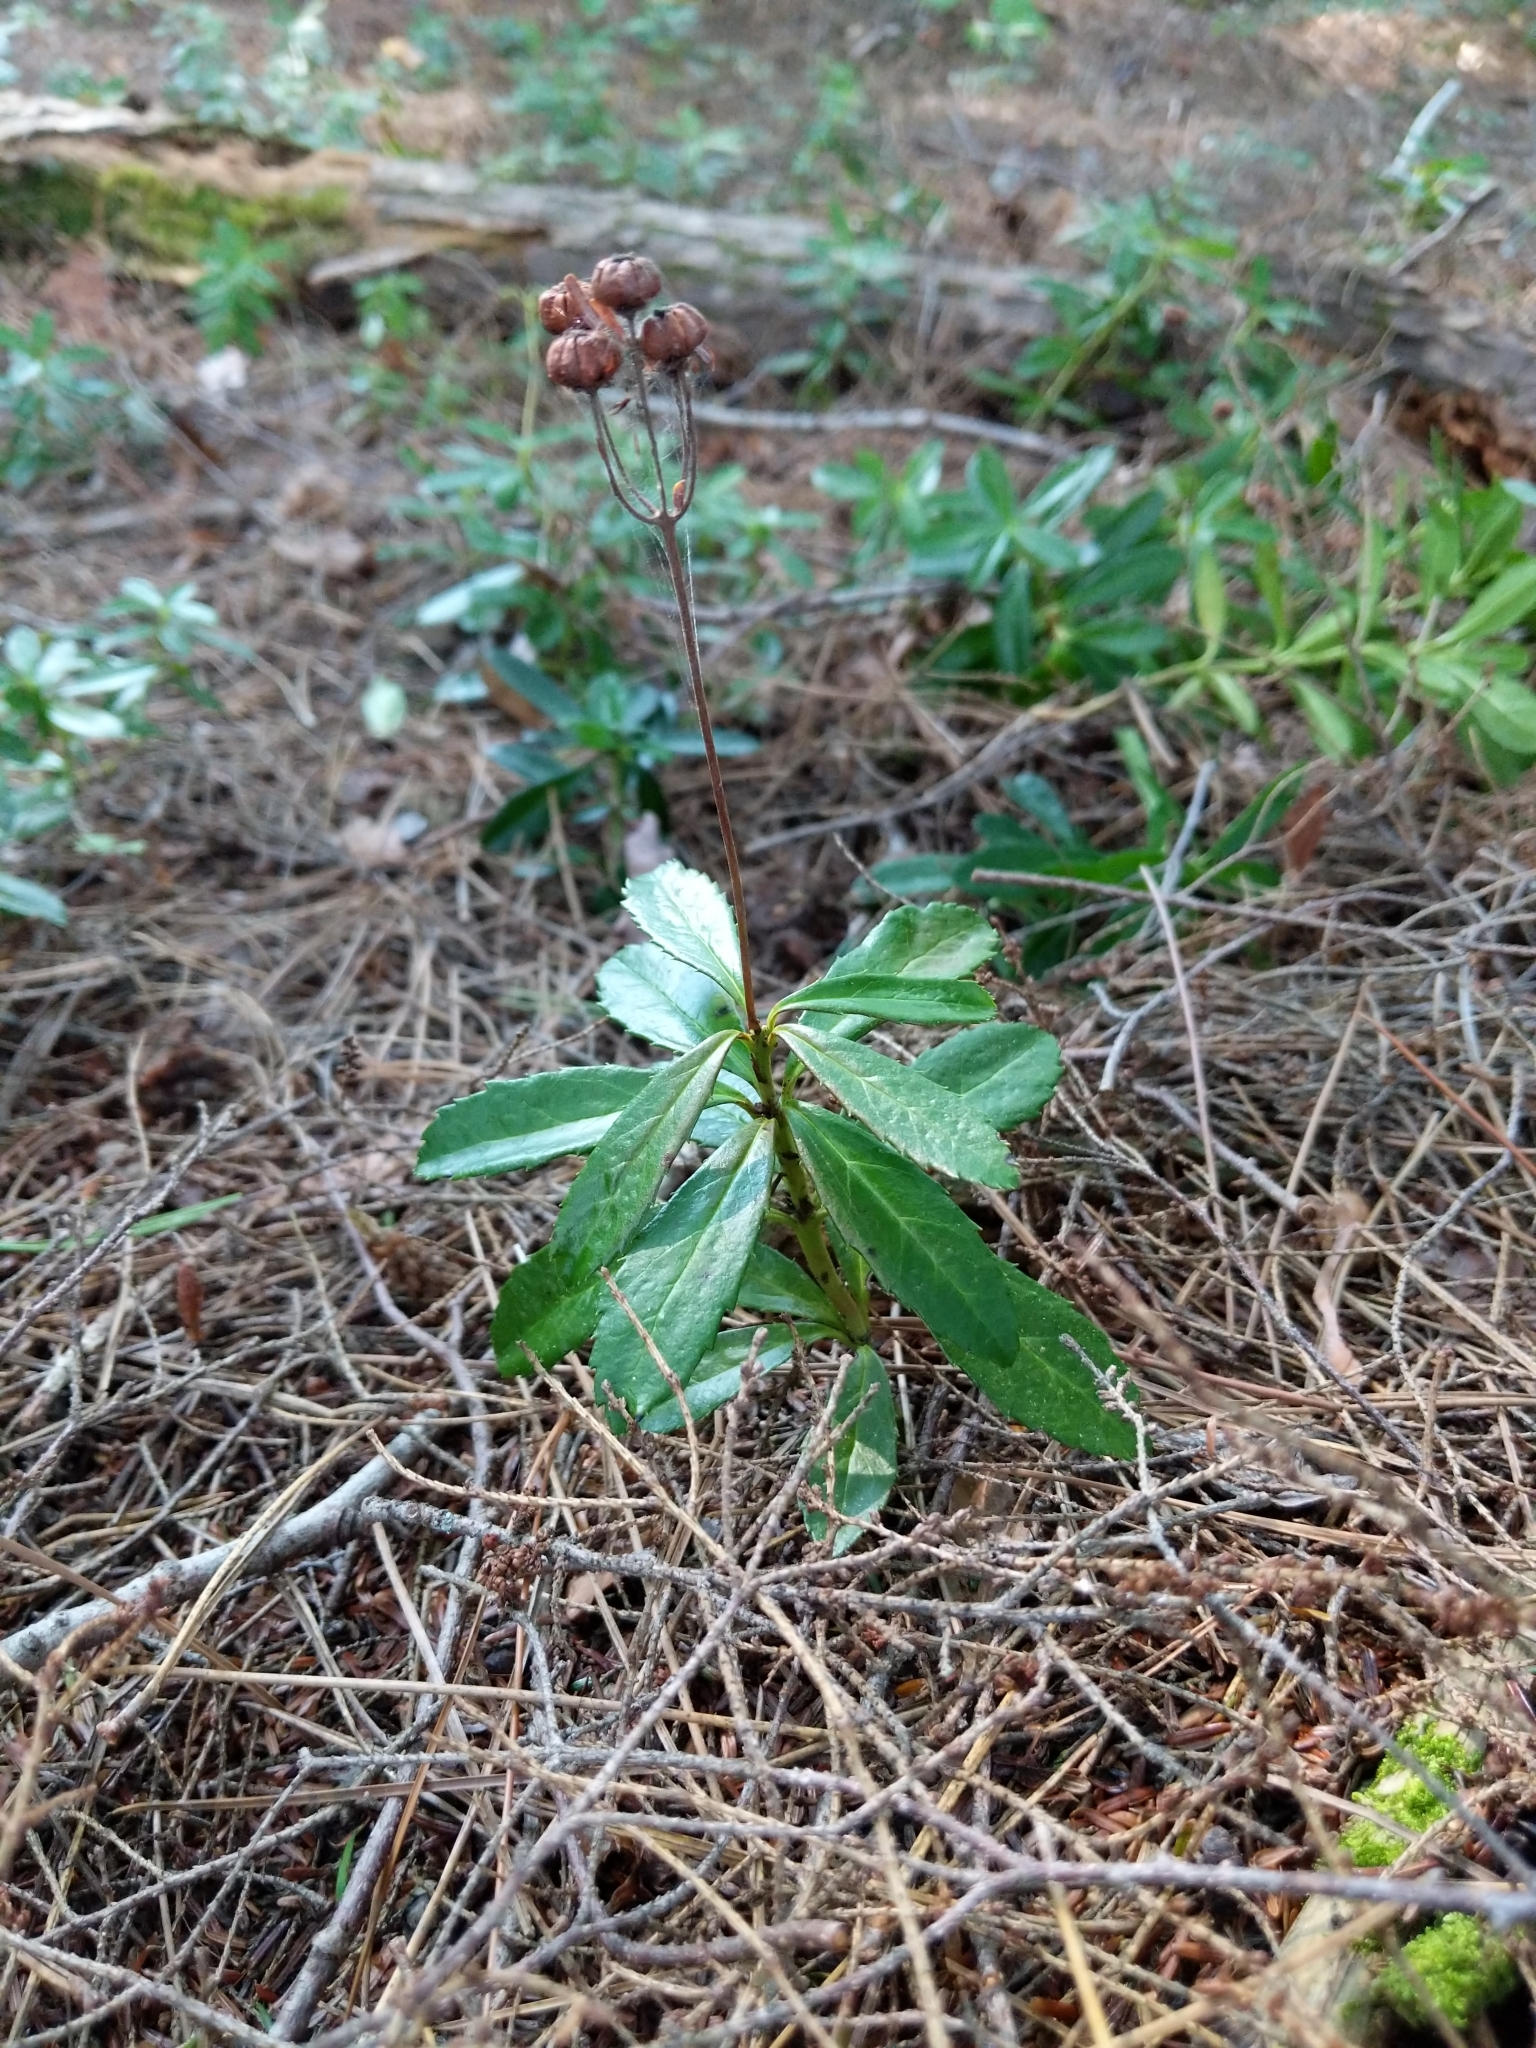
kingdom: Plantae
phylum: Tracheophyta
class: Magnoliopsida
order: Ericales
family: Ericaceae
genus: Chimaphila
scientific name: Chimaphila umbellata
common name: Pipsissewa
